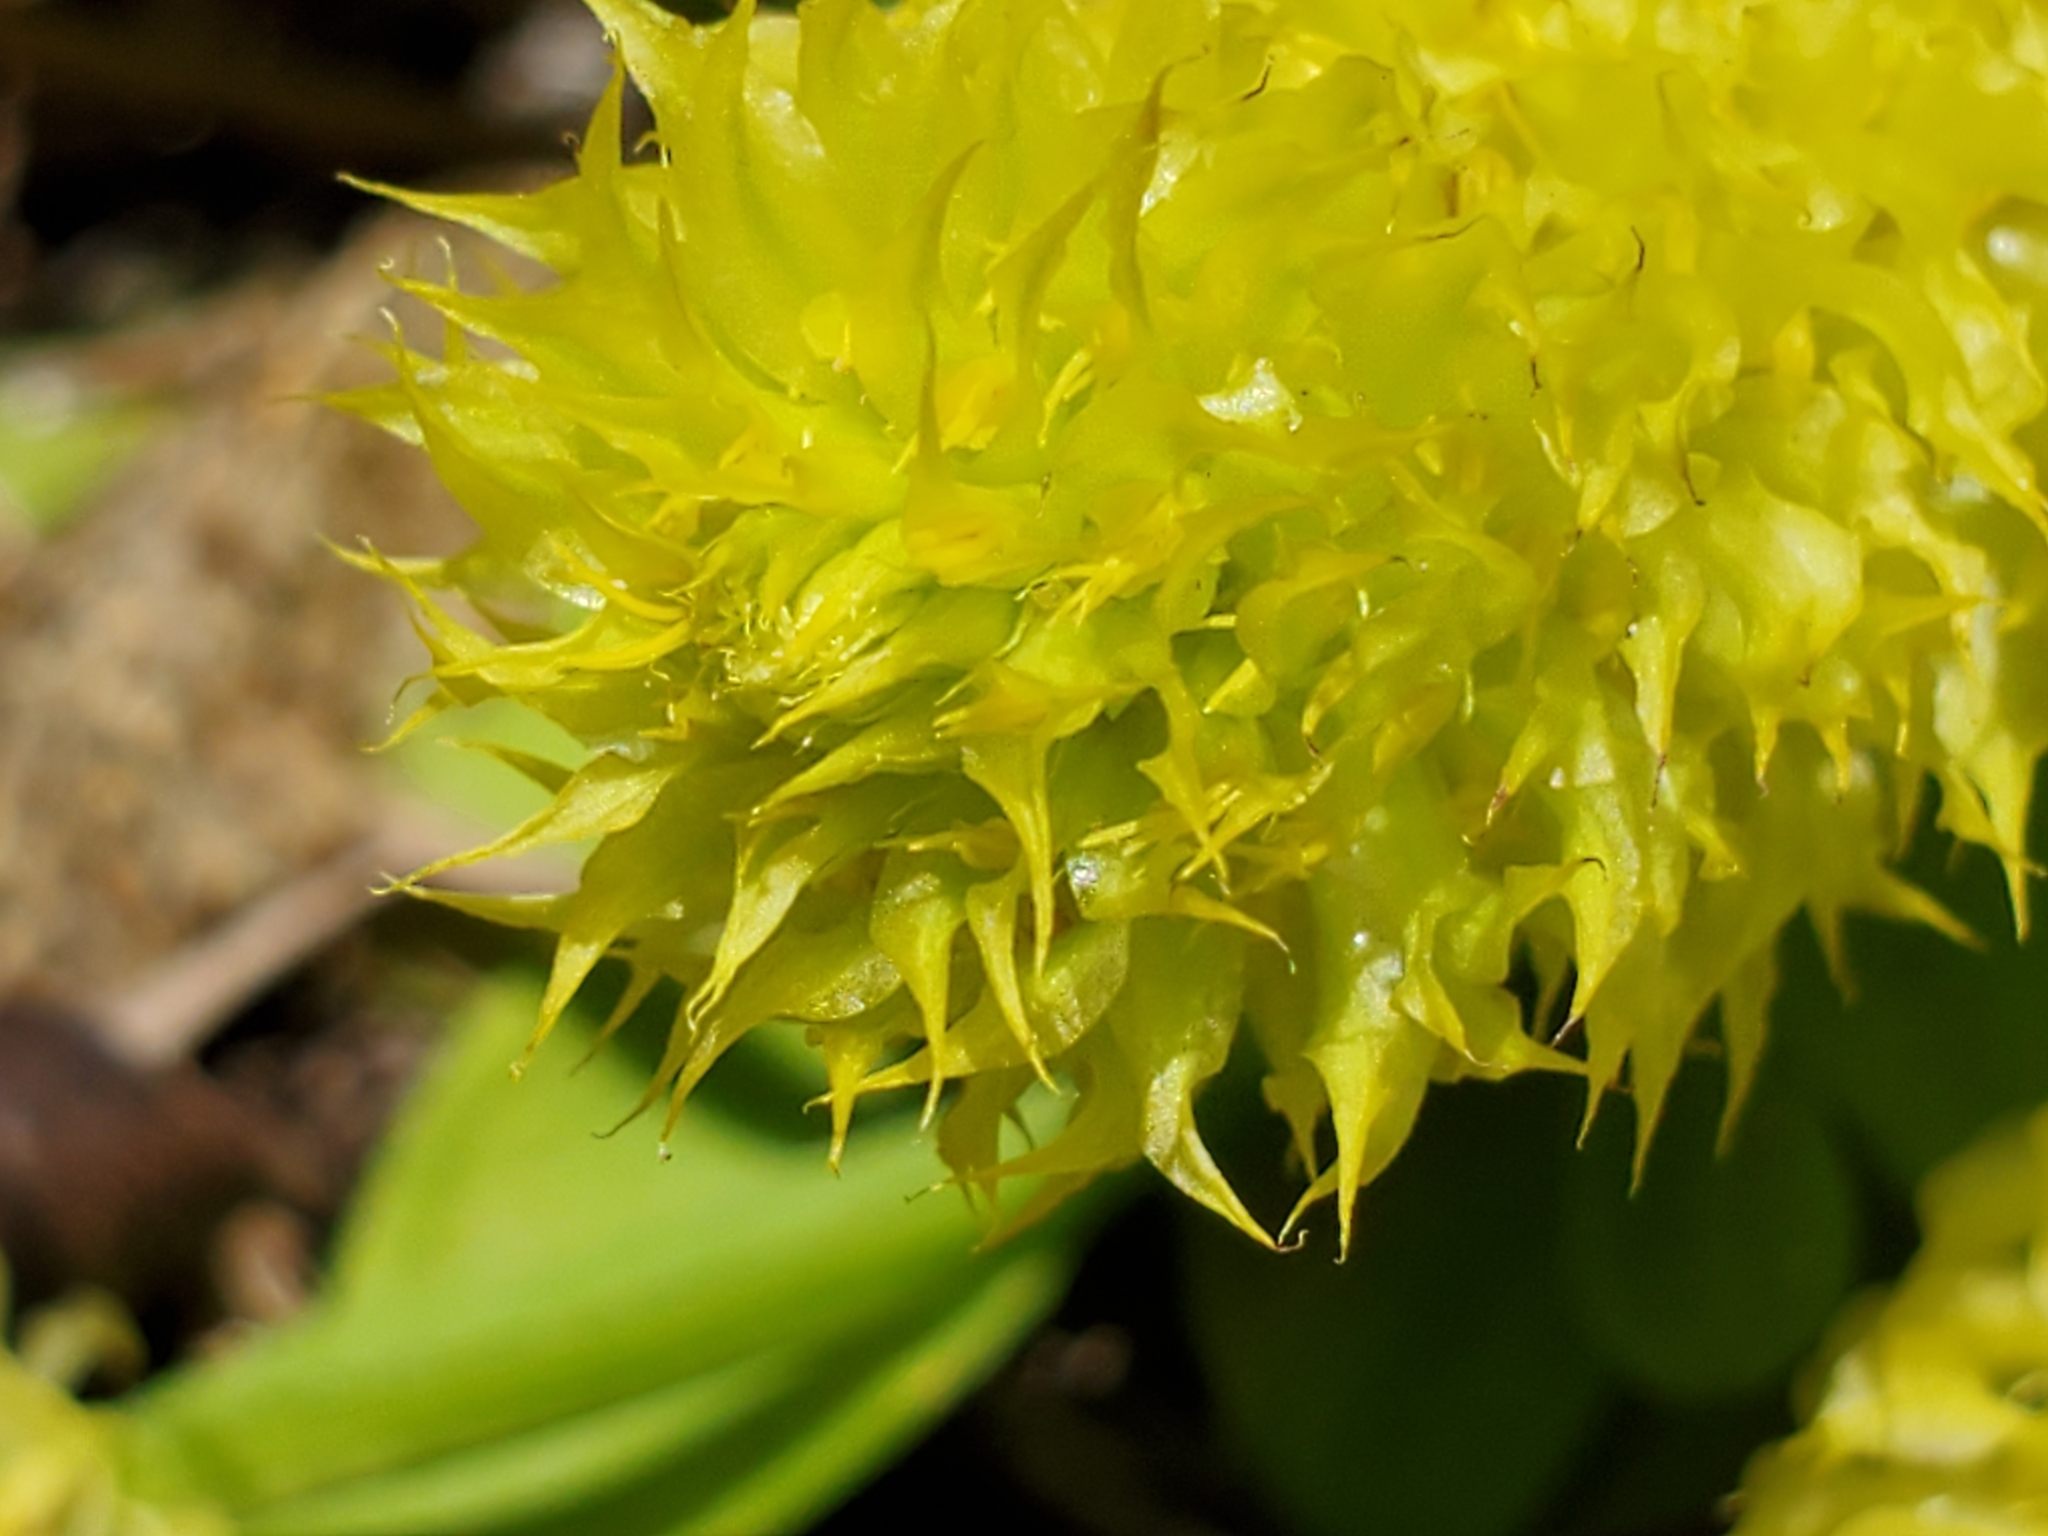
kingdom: Plantae
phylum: Tracheophyta
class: Magnoliopsida
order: Fabales
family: Polygalaceae
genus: Polygala
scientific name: Polygala nana
